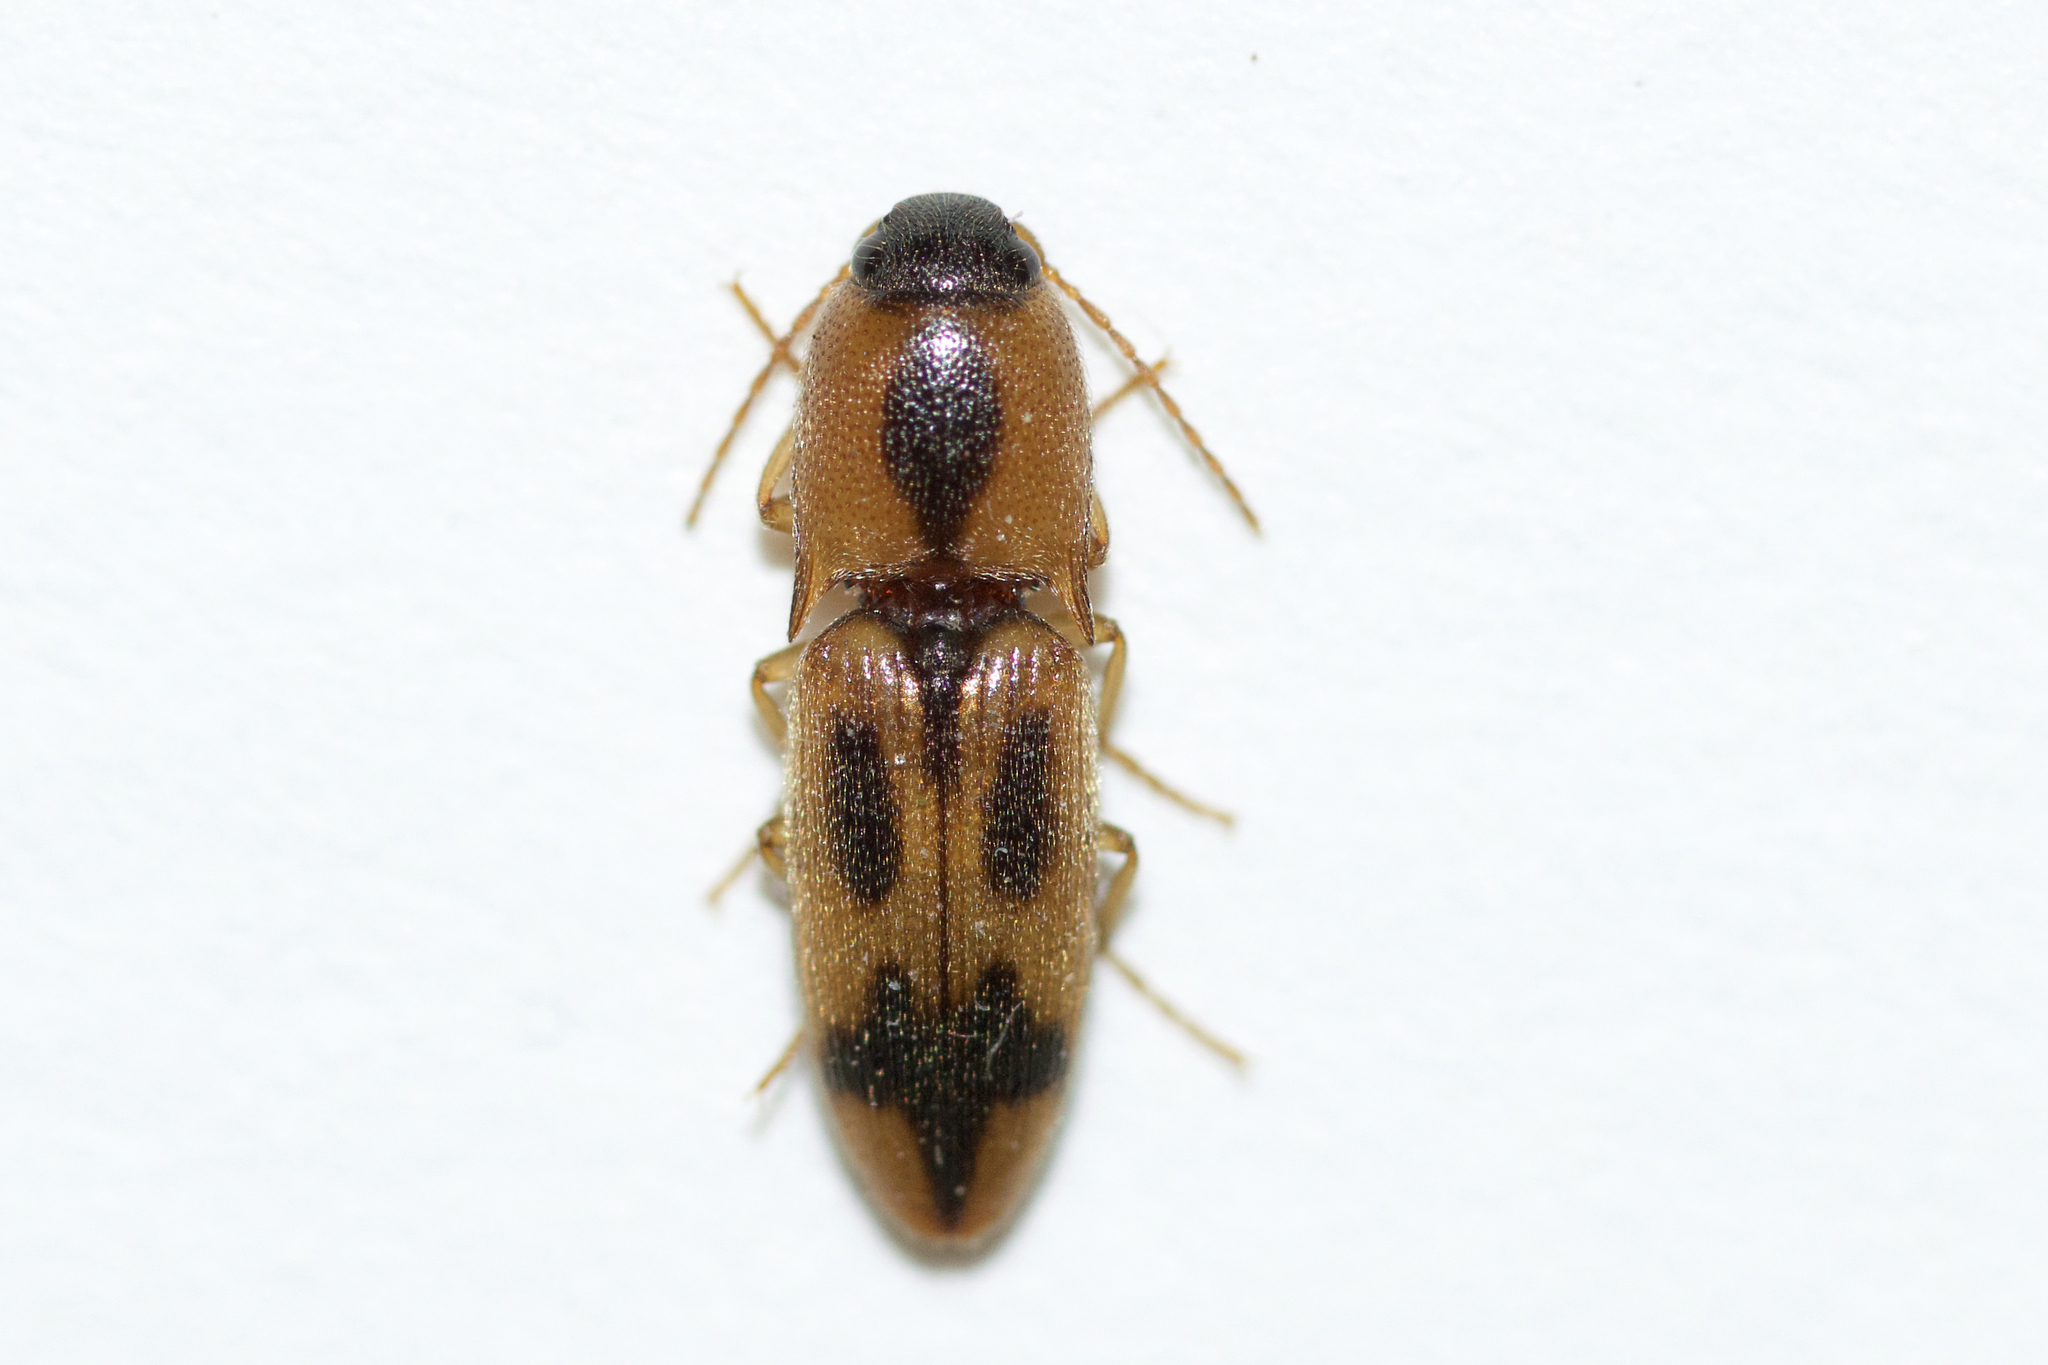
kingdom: Animalia
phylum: Arthropoda
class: Insecta
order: Coleoptera
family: Elateridae
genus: Aeolus
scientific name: Aeolus mellillus
